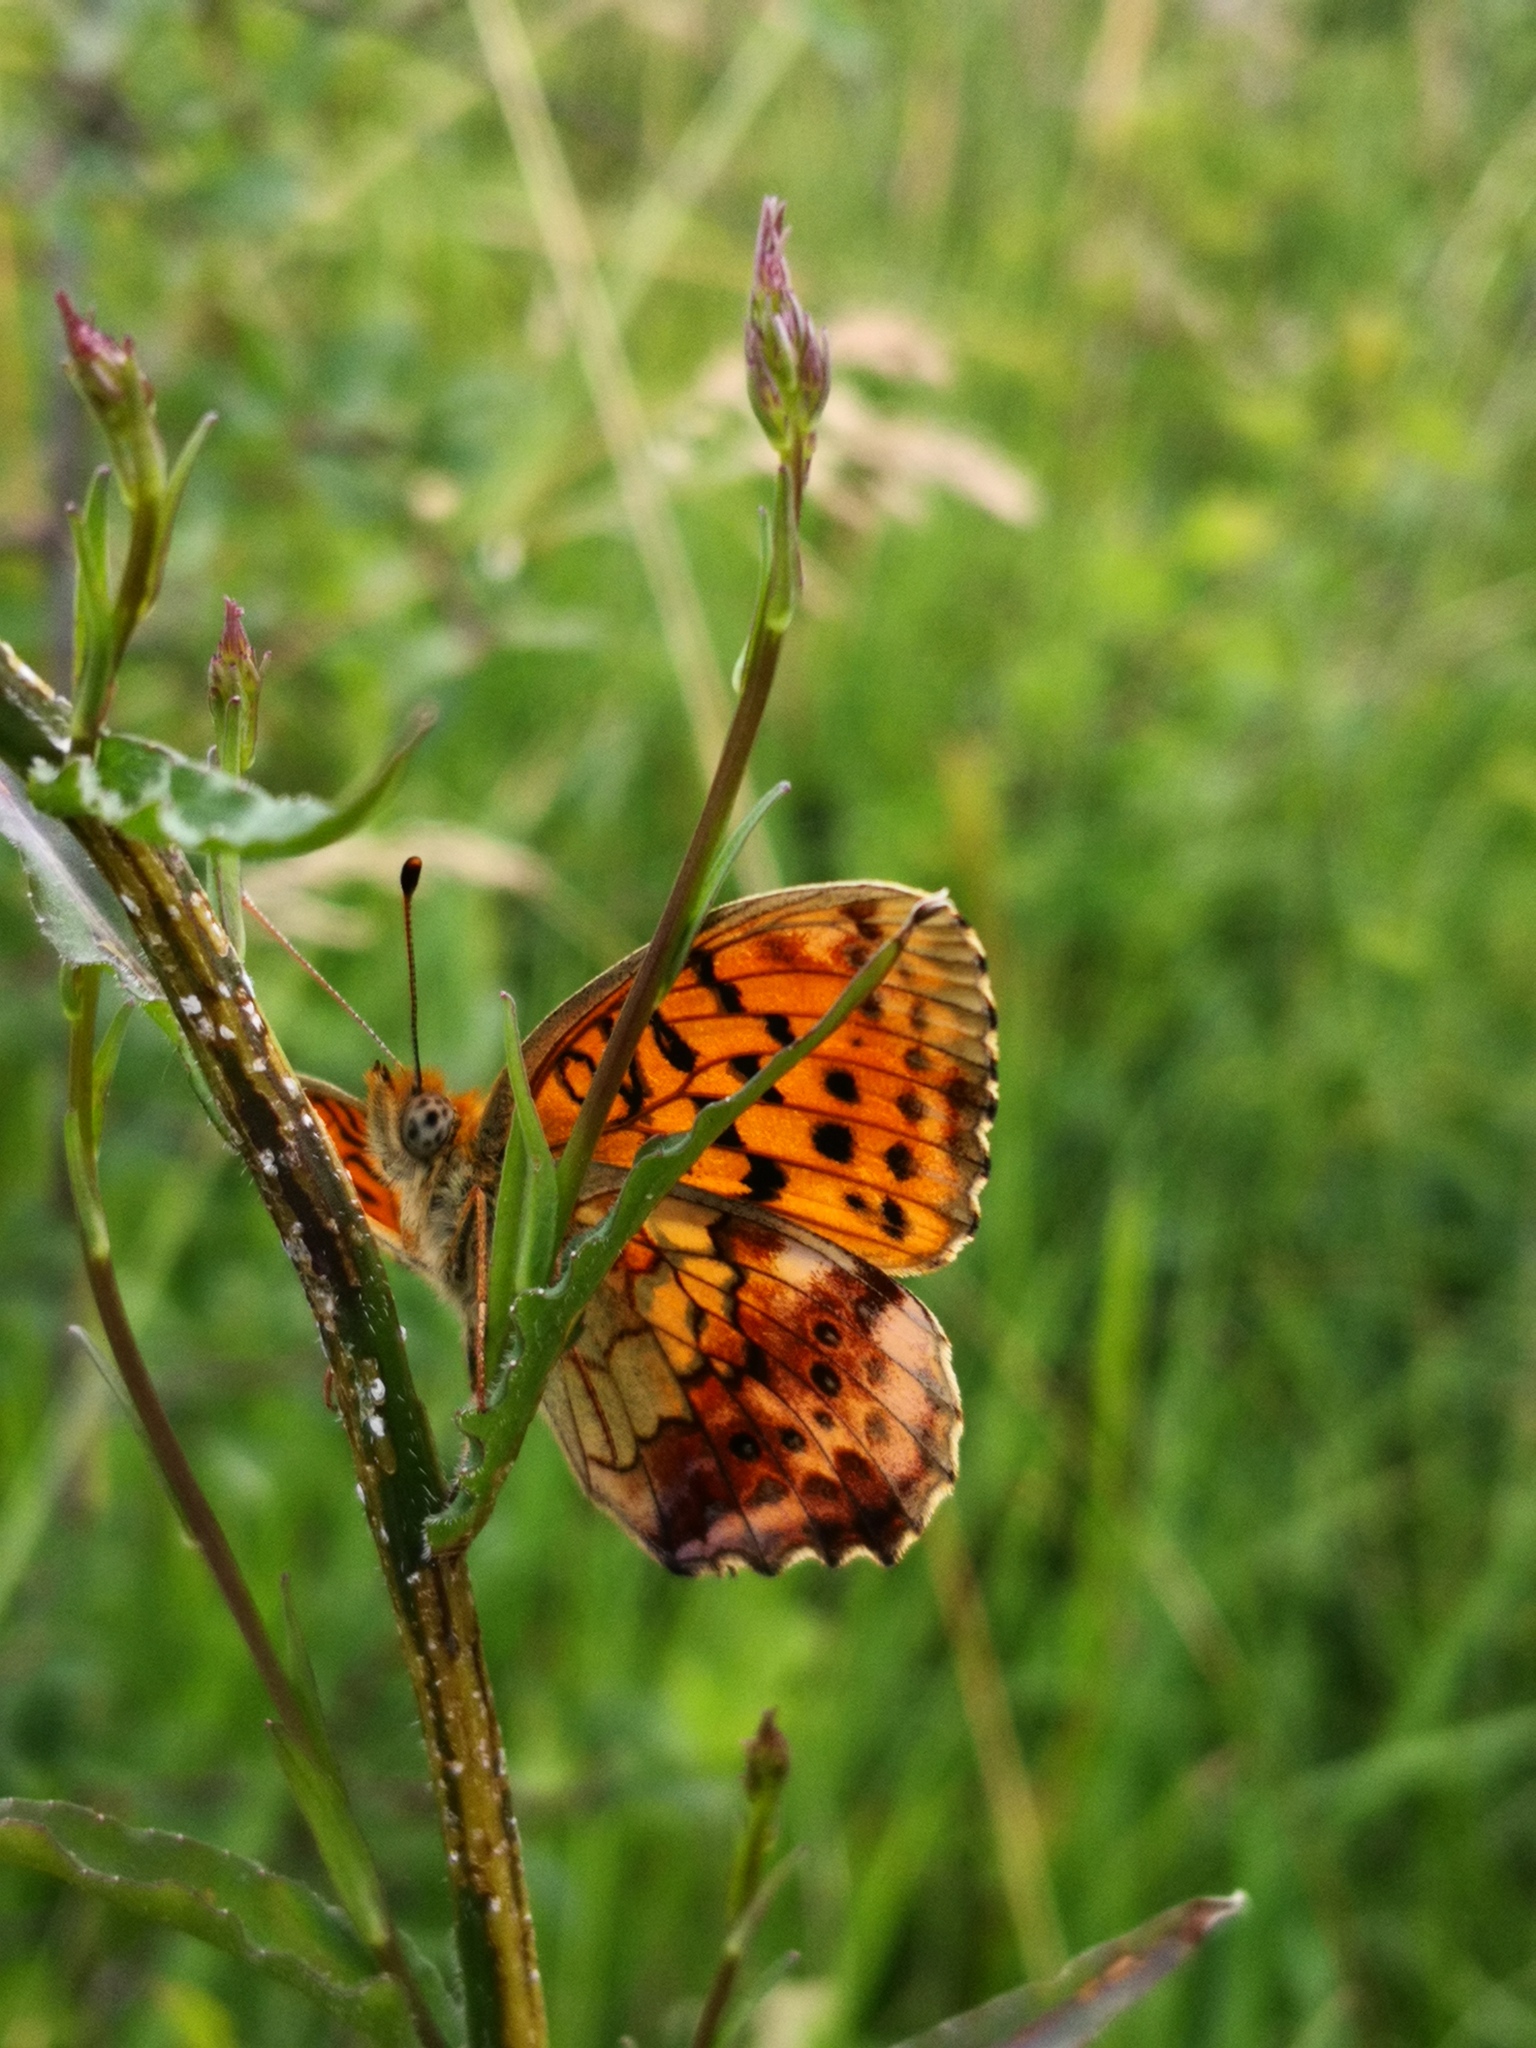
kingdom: Animalia
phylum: Arthropoda
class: Insecta
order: Lepidoptera
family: Nymphalidae
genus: Brenthis
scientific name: Brenthis daphne
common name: Marbled fritillary
